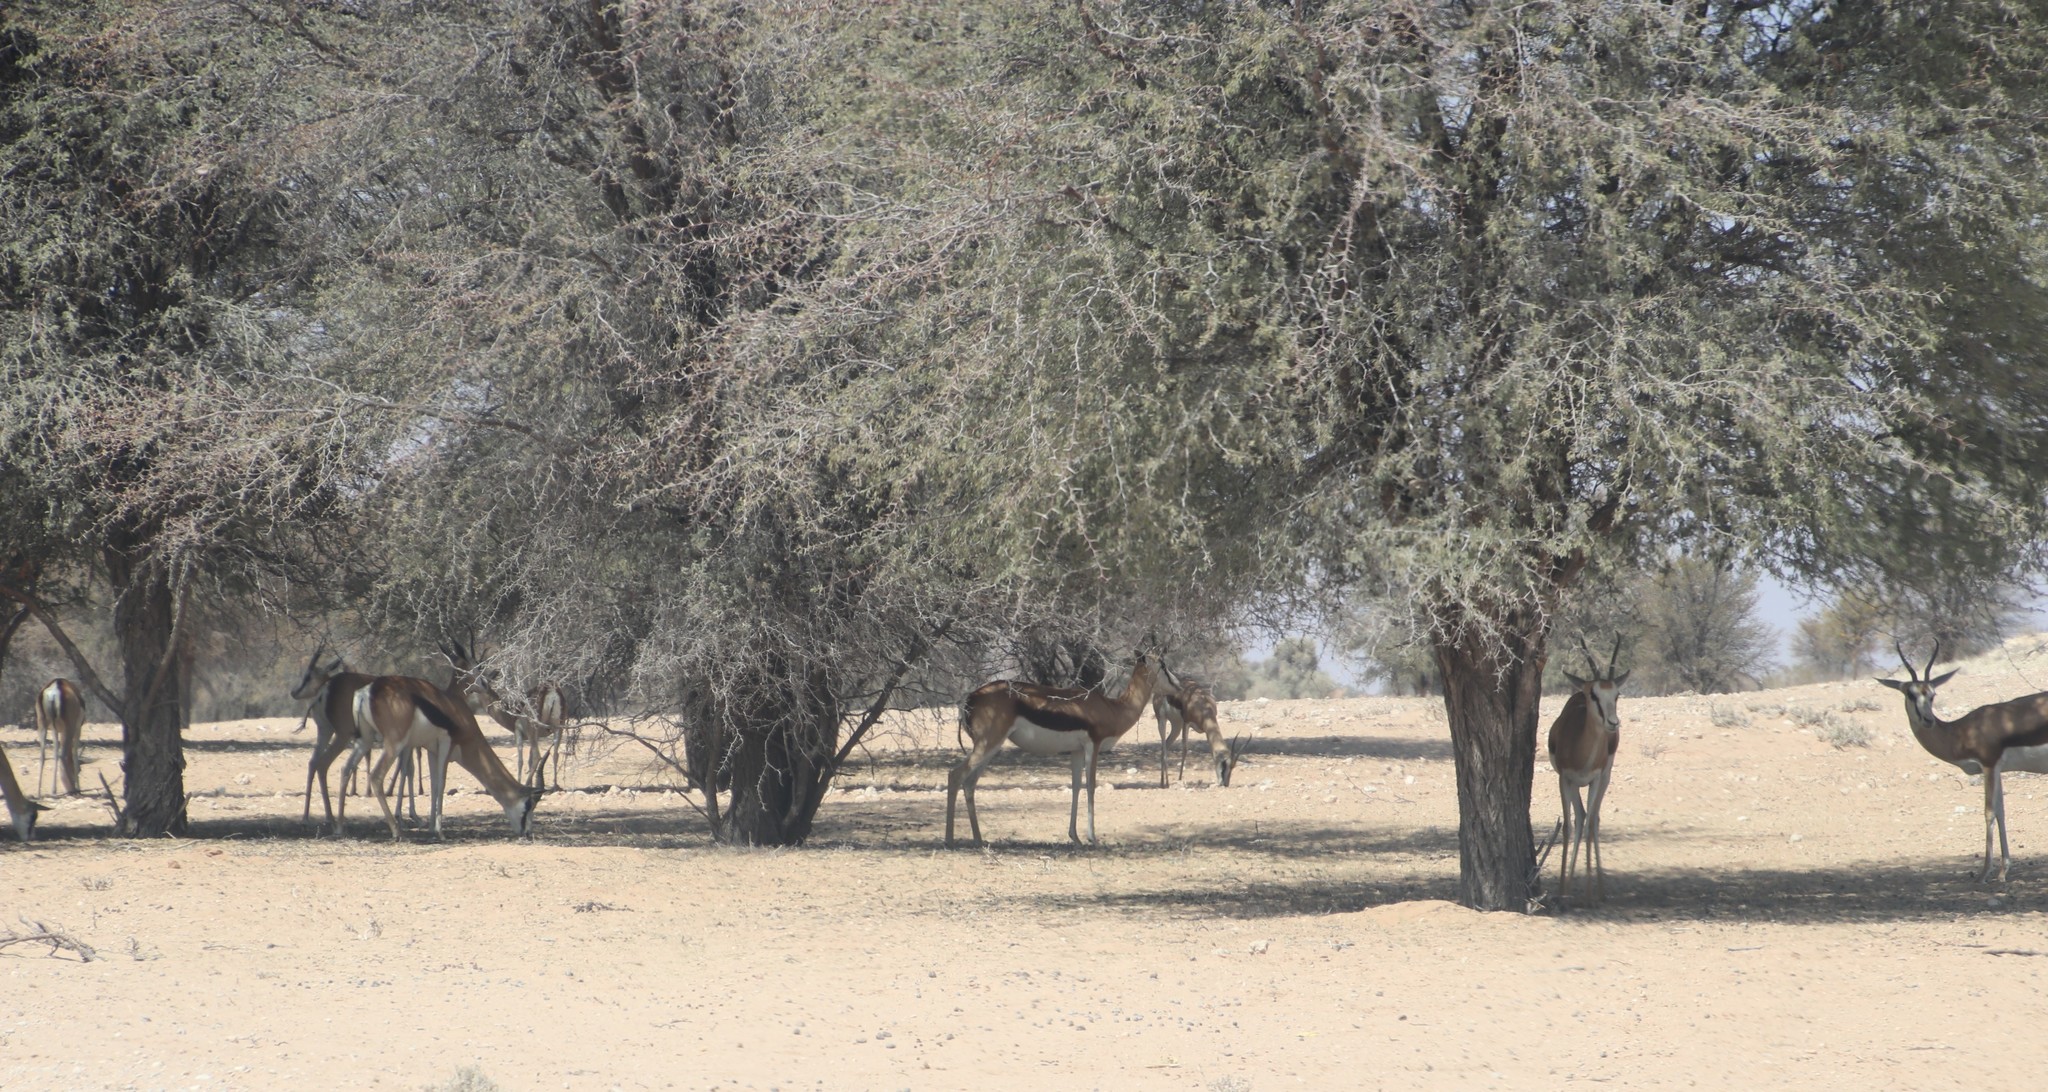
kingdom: Animalia
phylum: Chordata
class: Mammalia
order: Artiodactyla
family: Bovidae
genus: Antidorcas
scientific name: Antidorcas marsupialis
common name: Springbok
